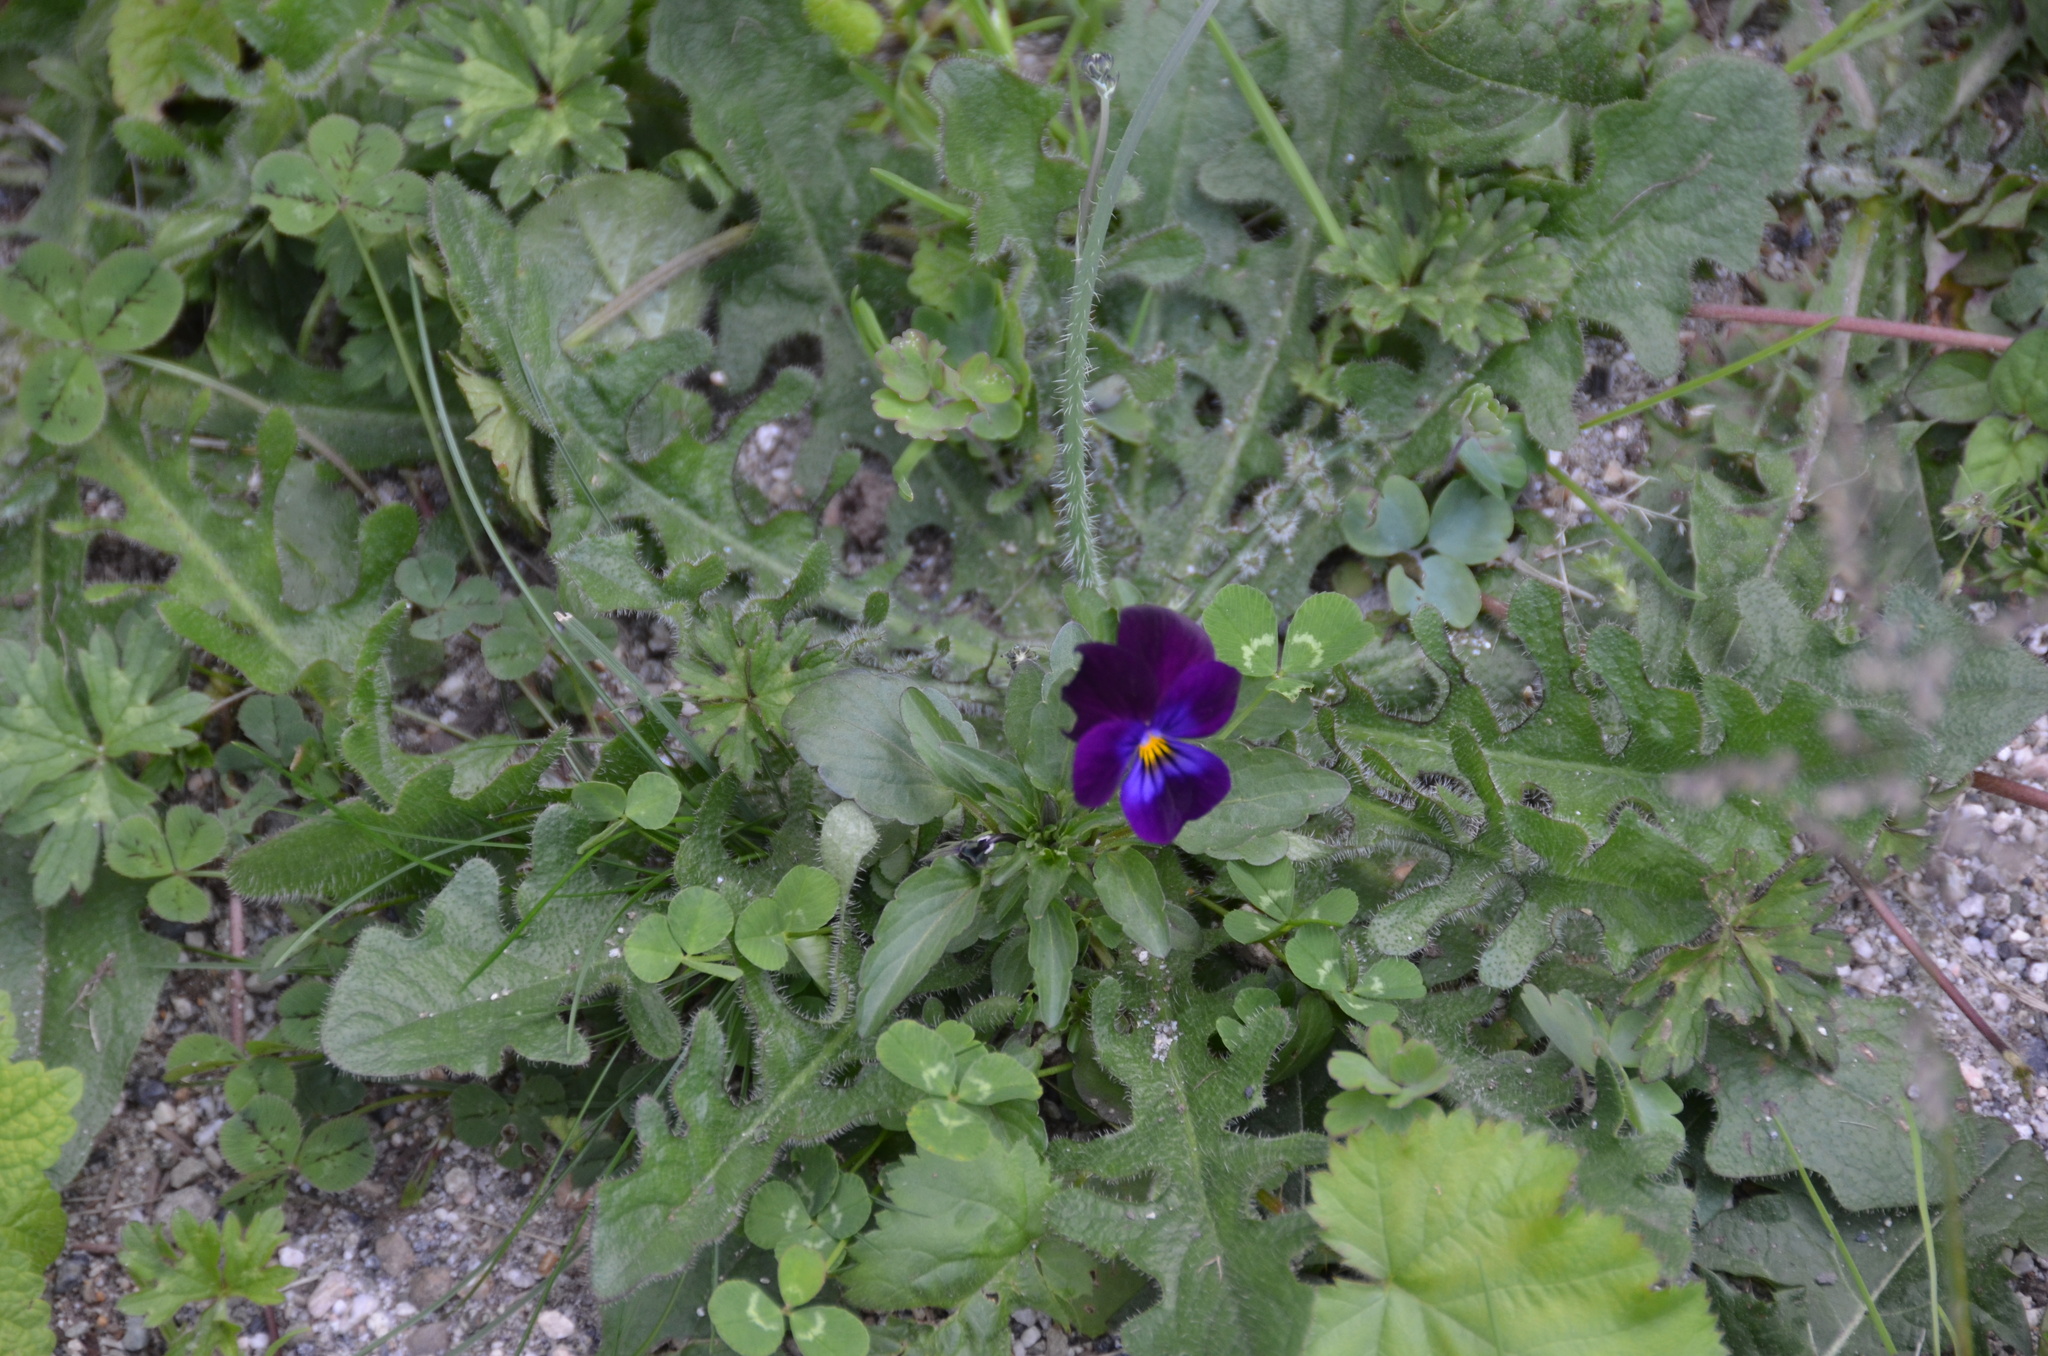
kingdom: Plantae
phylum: Tracheophyta
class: Magnoliopsida
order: Malpighiales
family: Violaceae
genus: Viola
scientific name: Viola williamsii
